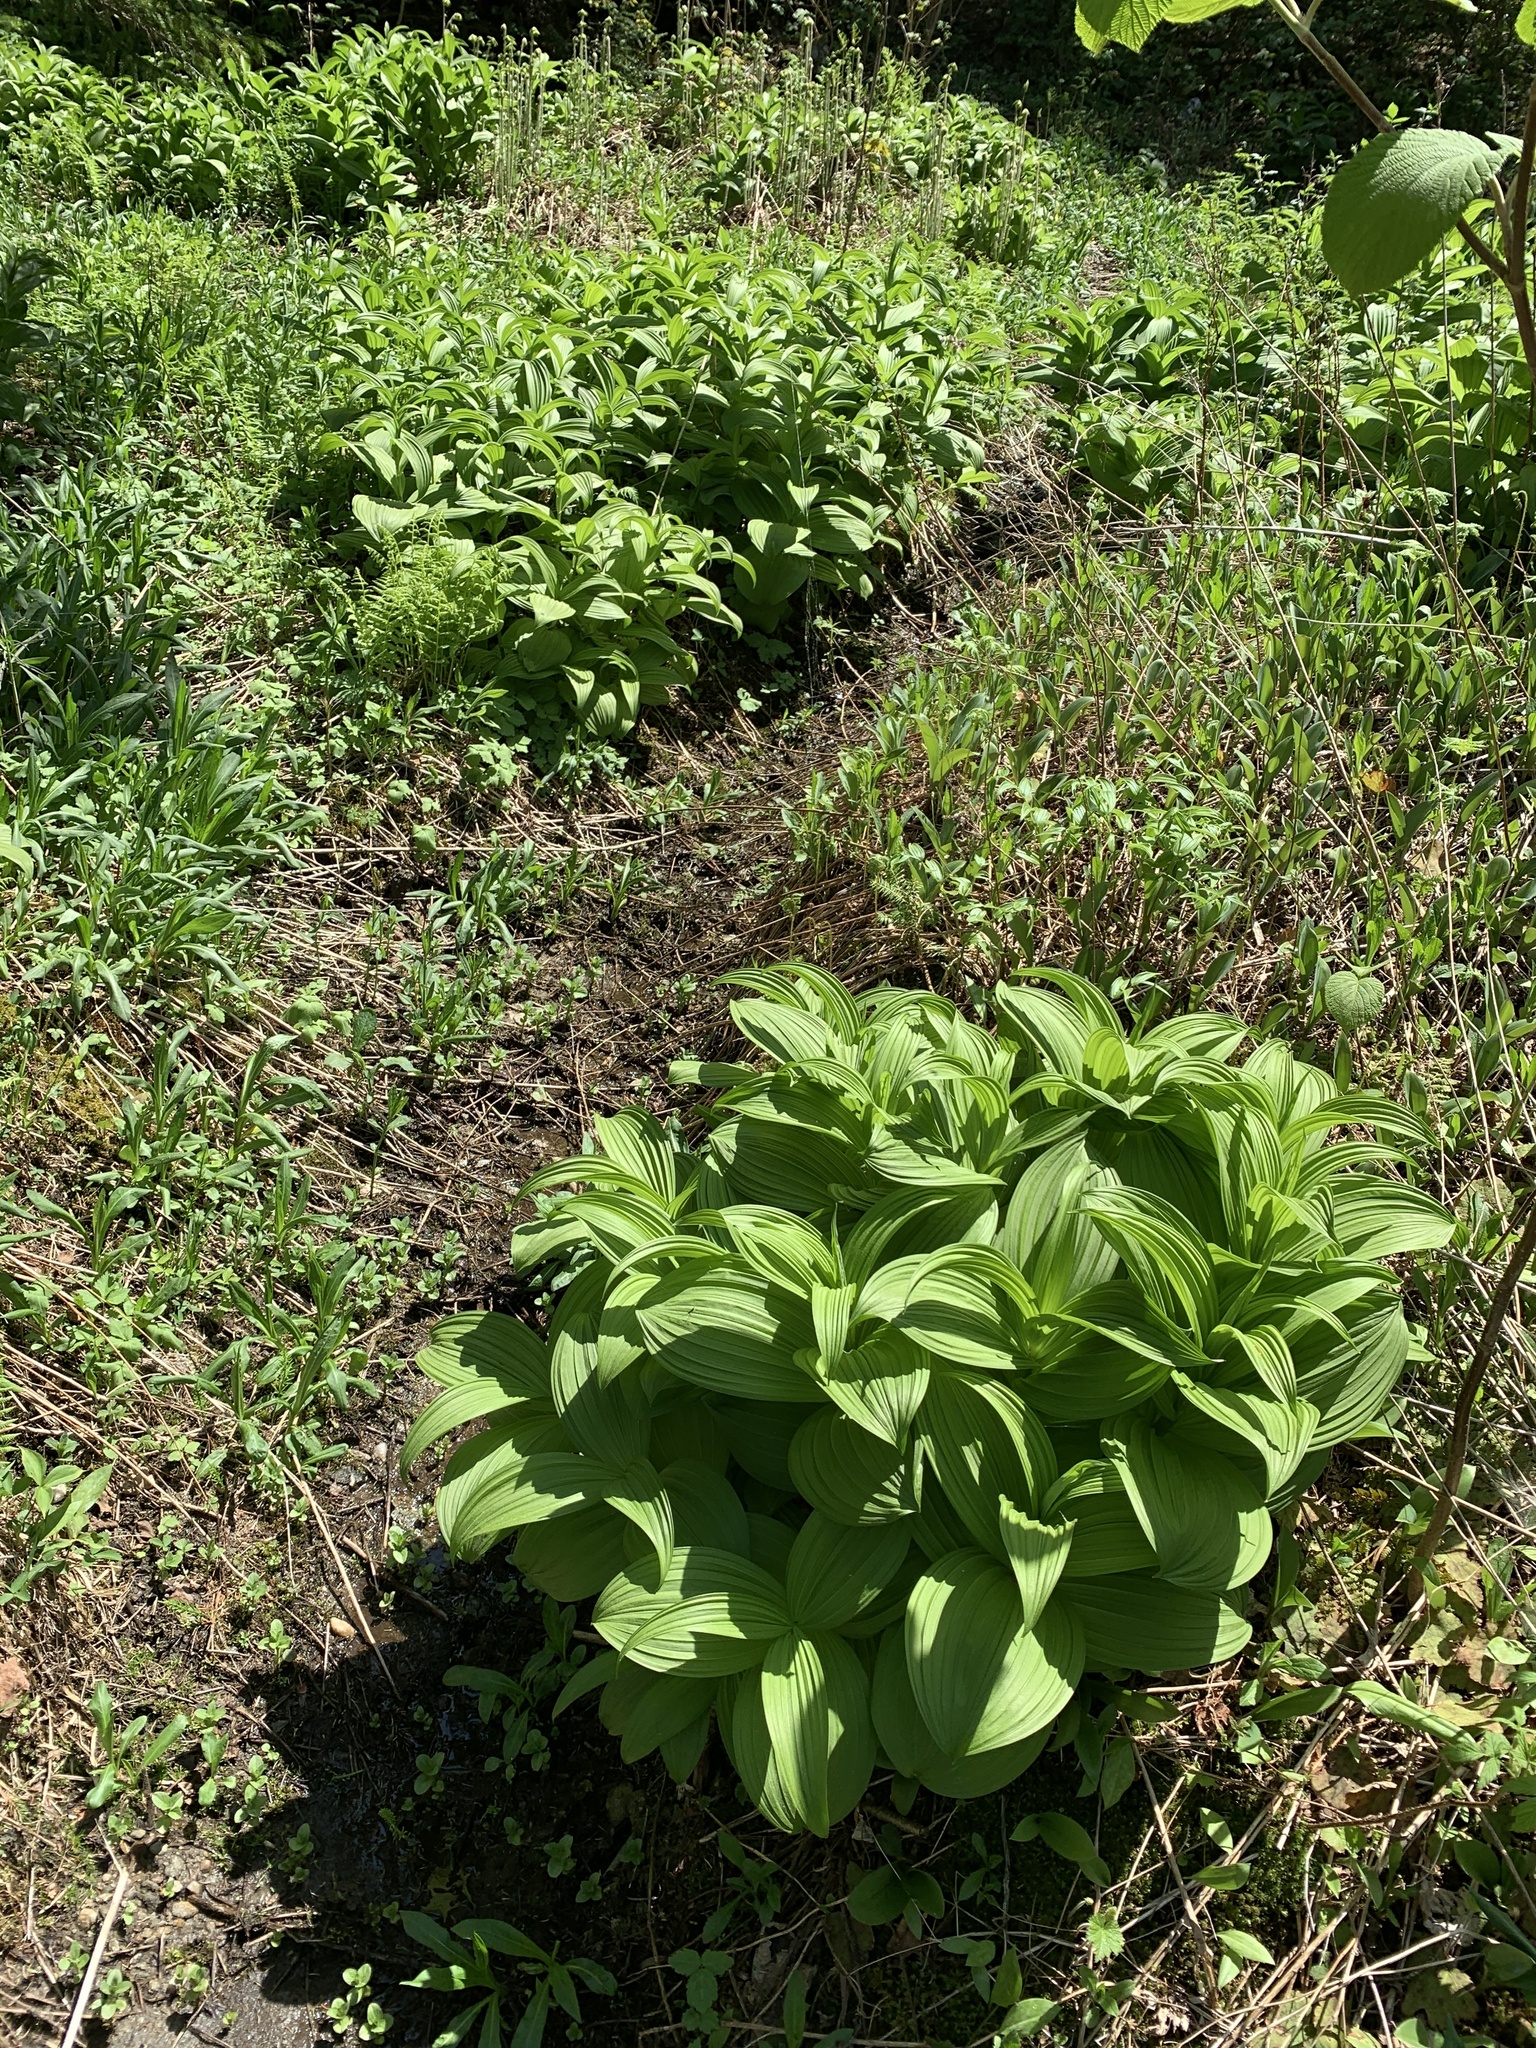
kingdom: Plantae
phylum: Tracheophyta
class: Liliopsida
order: Liliales
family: Melanthiaceae
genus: Veratrum
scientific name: Veratrum viride
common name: American false hellebore
